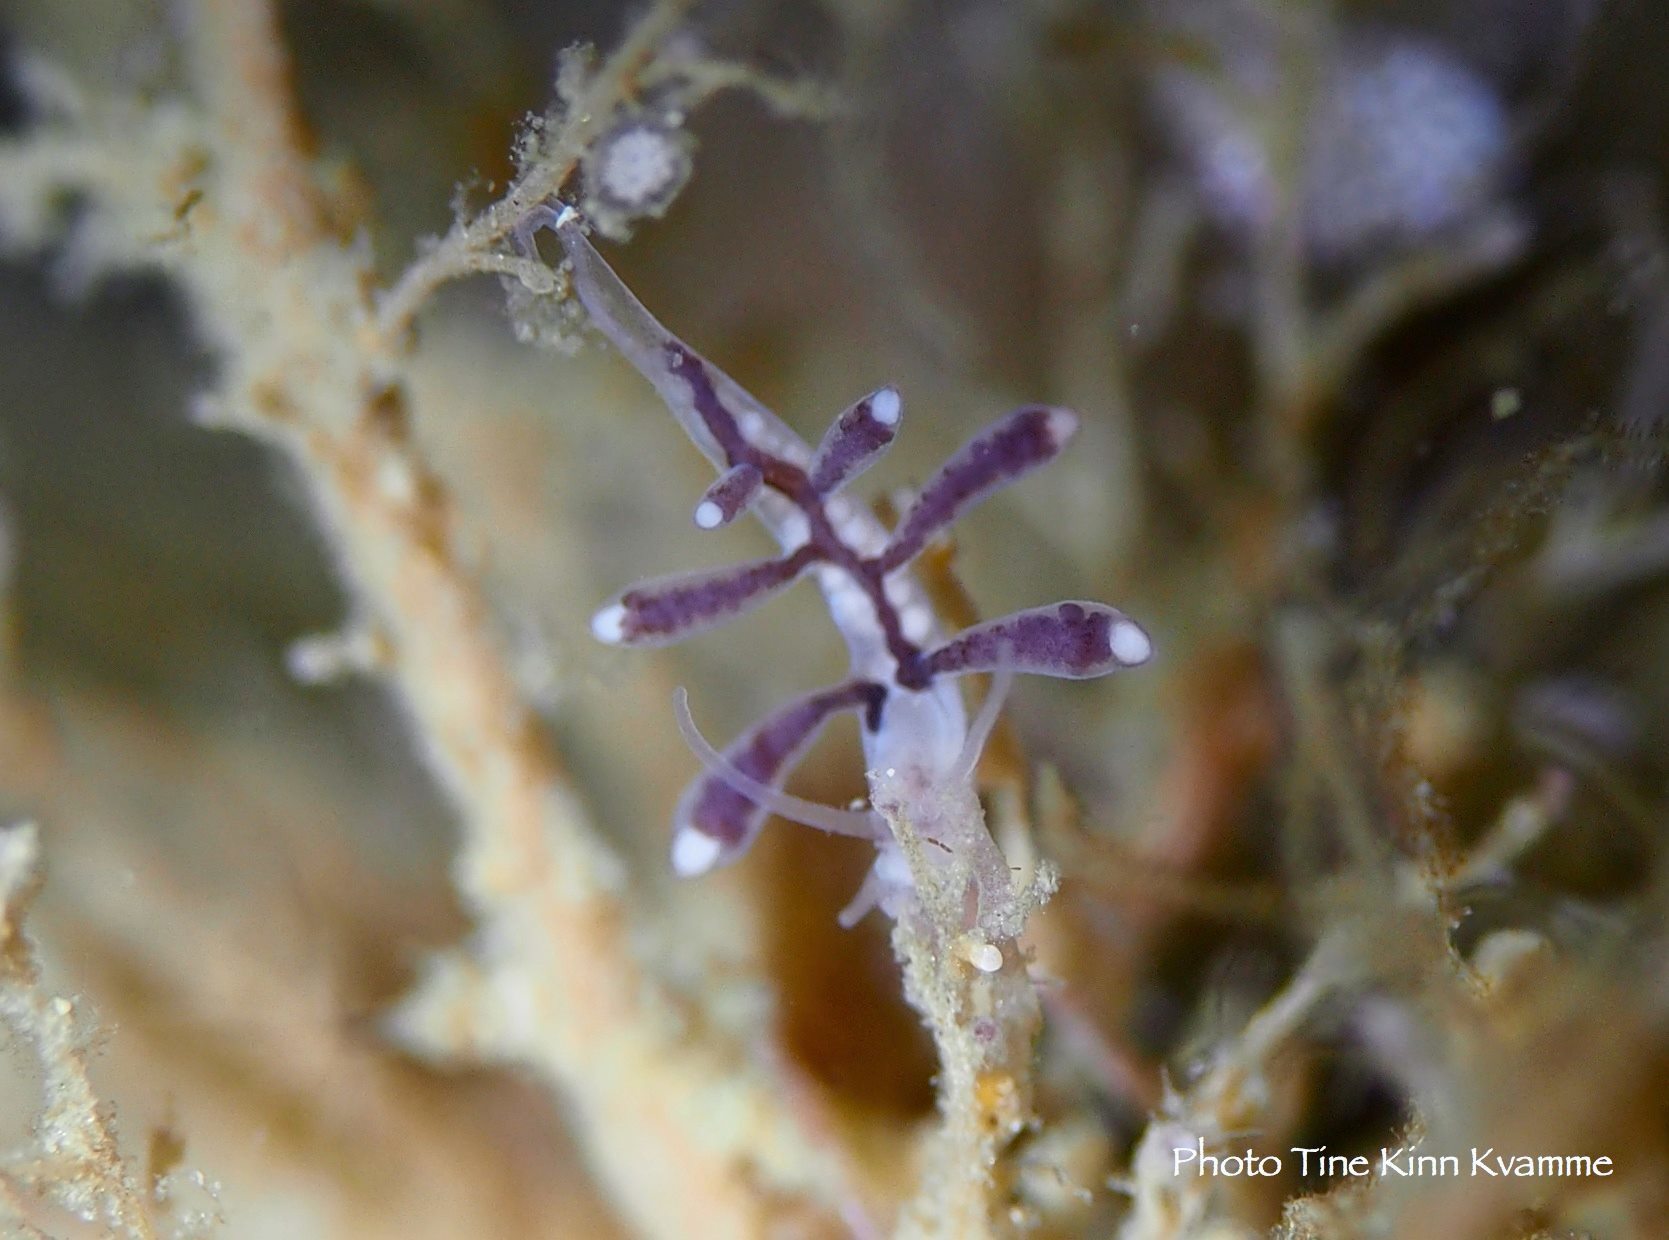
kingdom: Animalia
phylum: Mollusca
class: Gastropoda
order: Nudibranchia
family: Tergipedidae
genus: Tergipes
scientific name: Tergipes tergipes
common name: Johnston's balloon eolis
